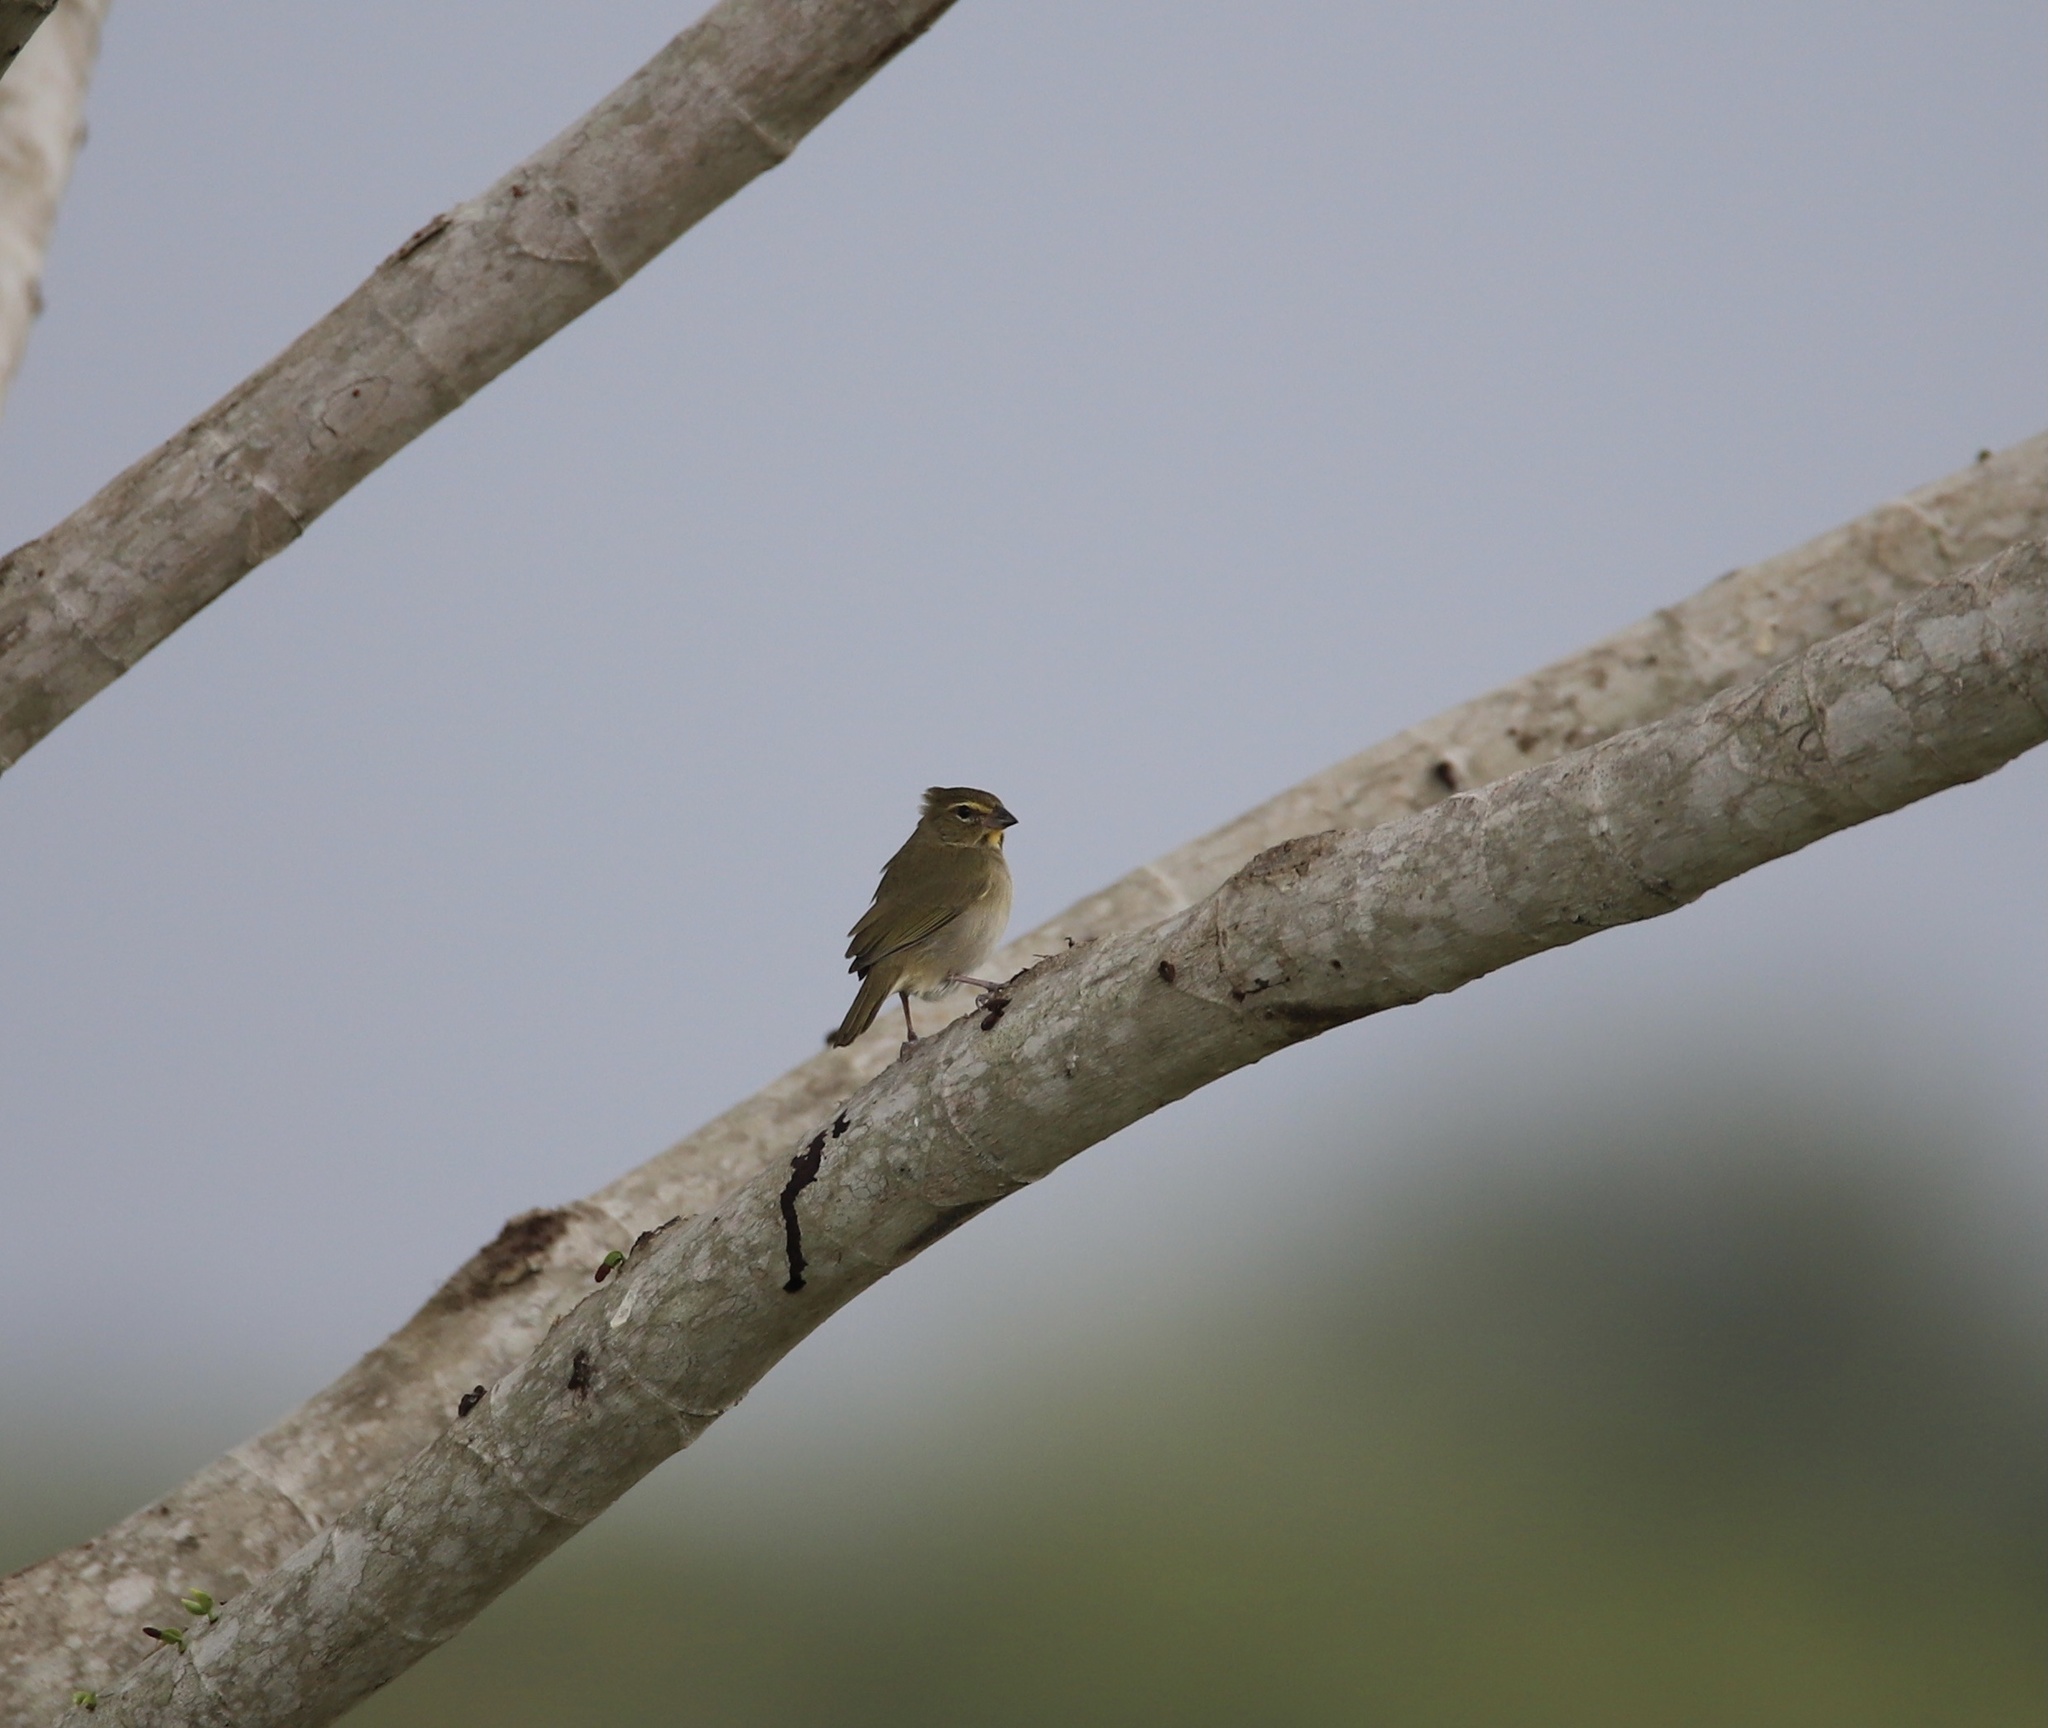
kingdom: Animalia
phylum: Chordata
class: Aves
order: Passeriformes
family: Thraupidae
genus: Tiaris
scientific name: Tiaris olivaceus
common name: Yellow-faced grassquit
